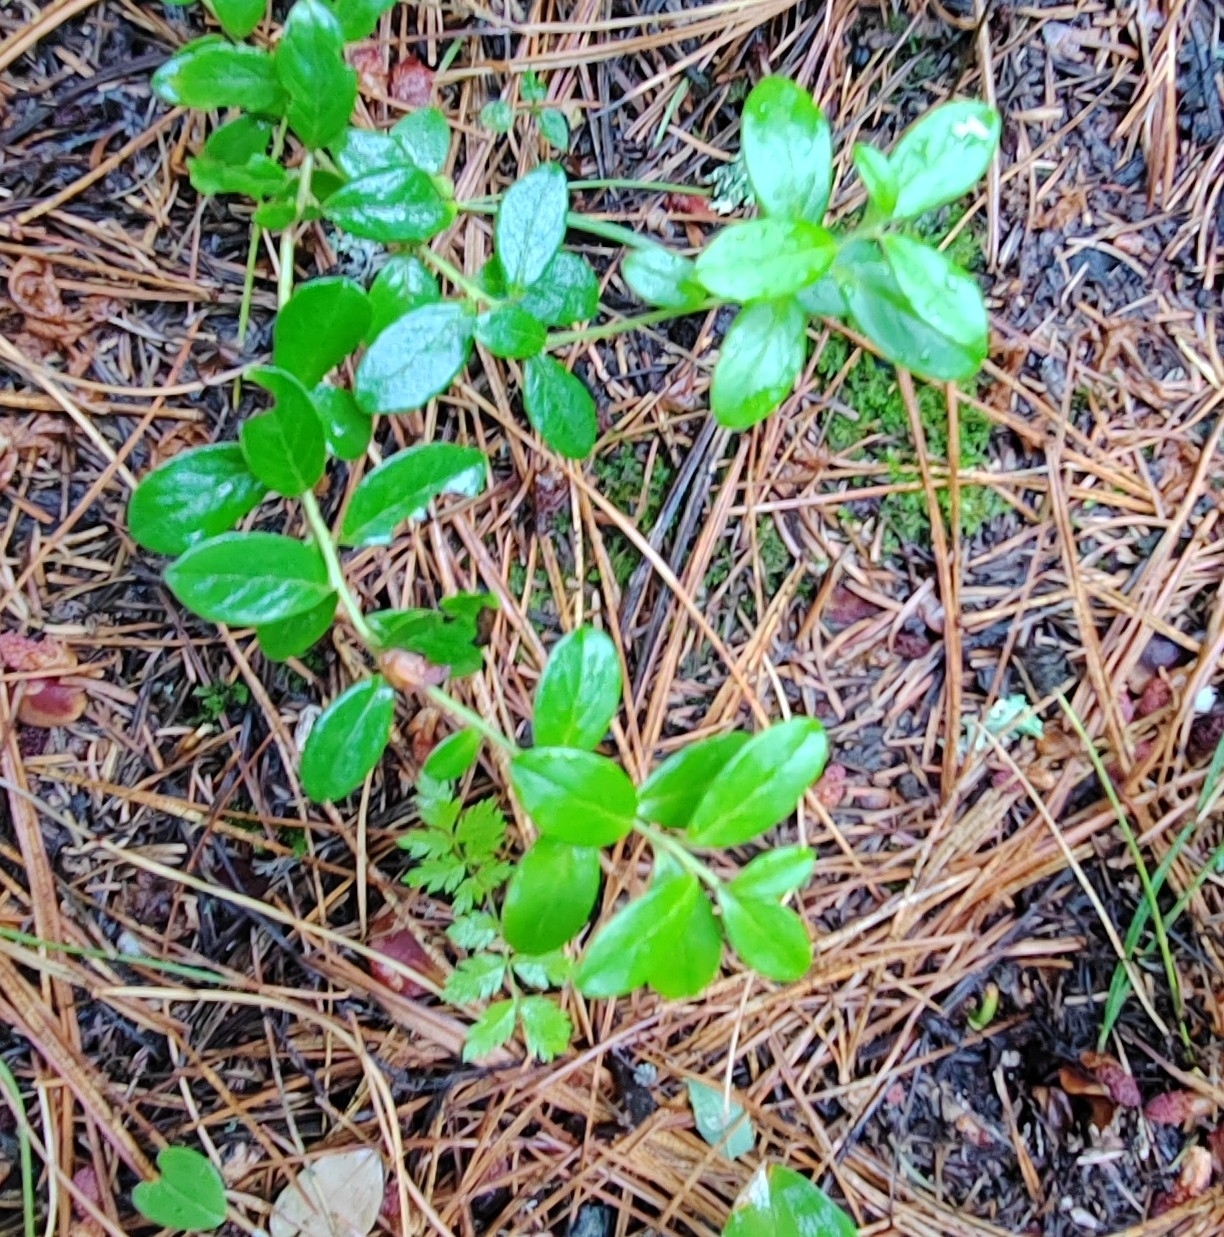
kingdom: Plantae
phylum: Tracheophyta
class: Magnoliopsida
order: Ericales
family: Ericaceae
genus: Vaccinium
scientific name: Vaccinium vitis-idaea
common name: Cowberry
